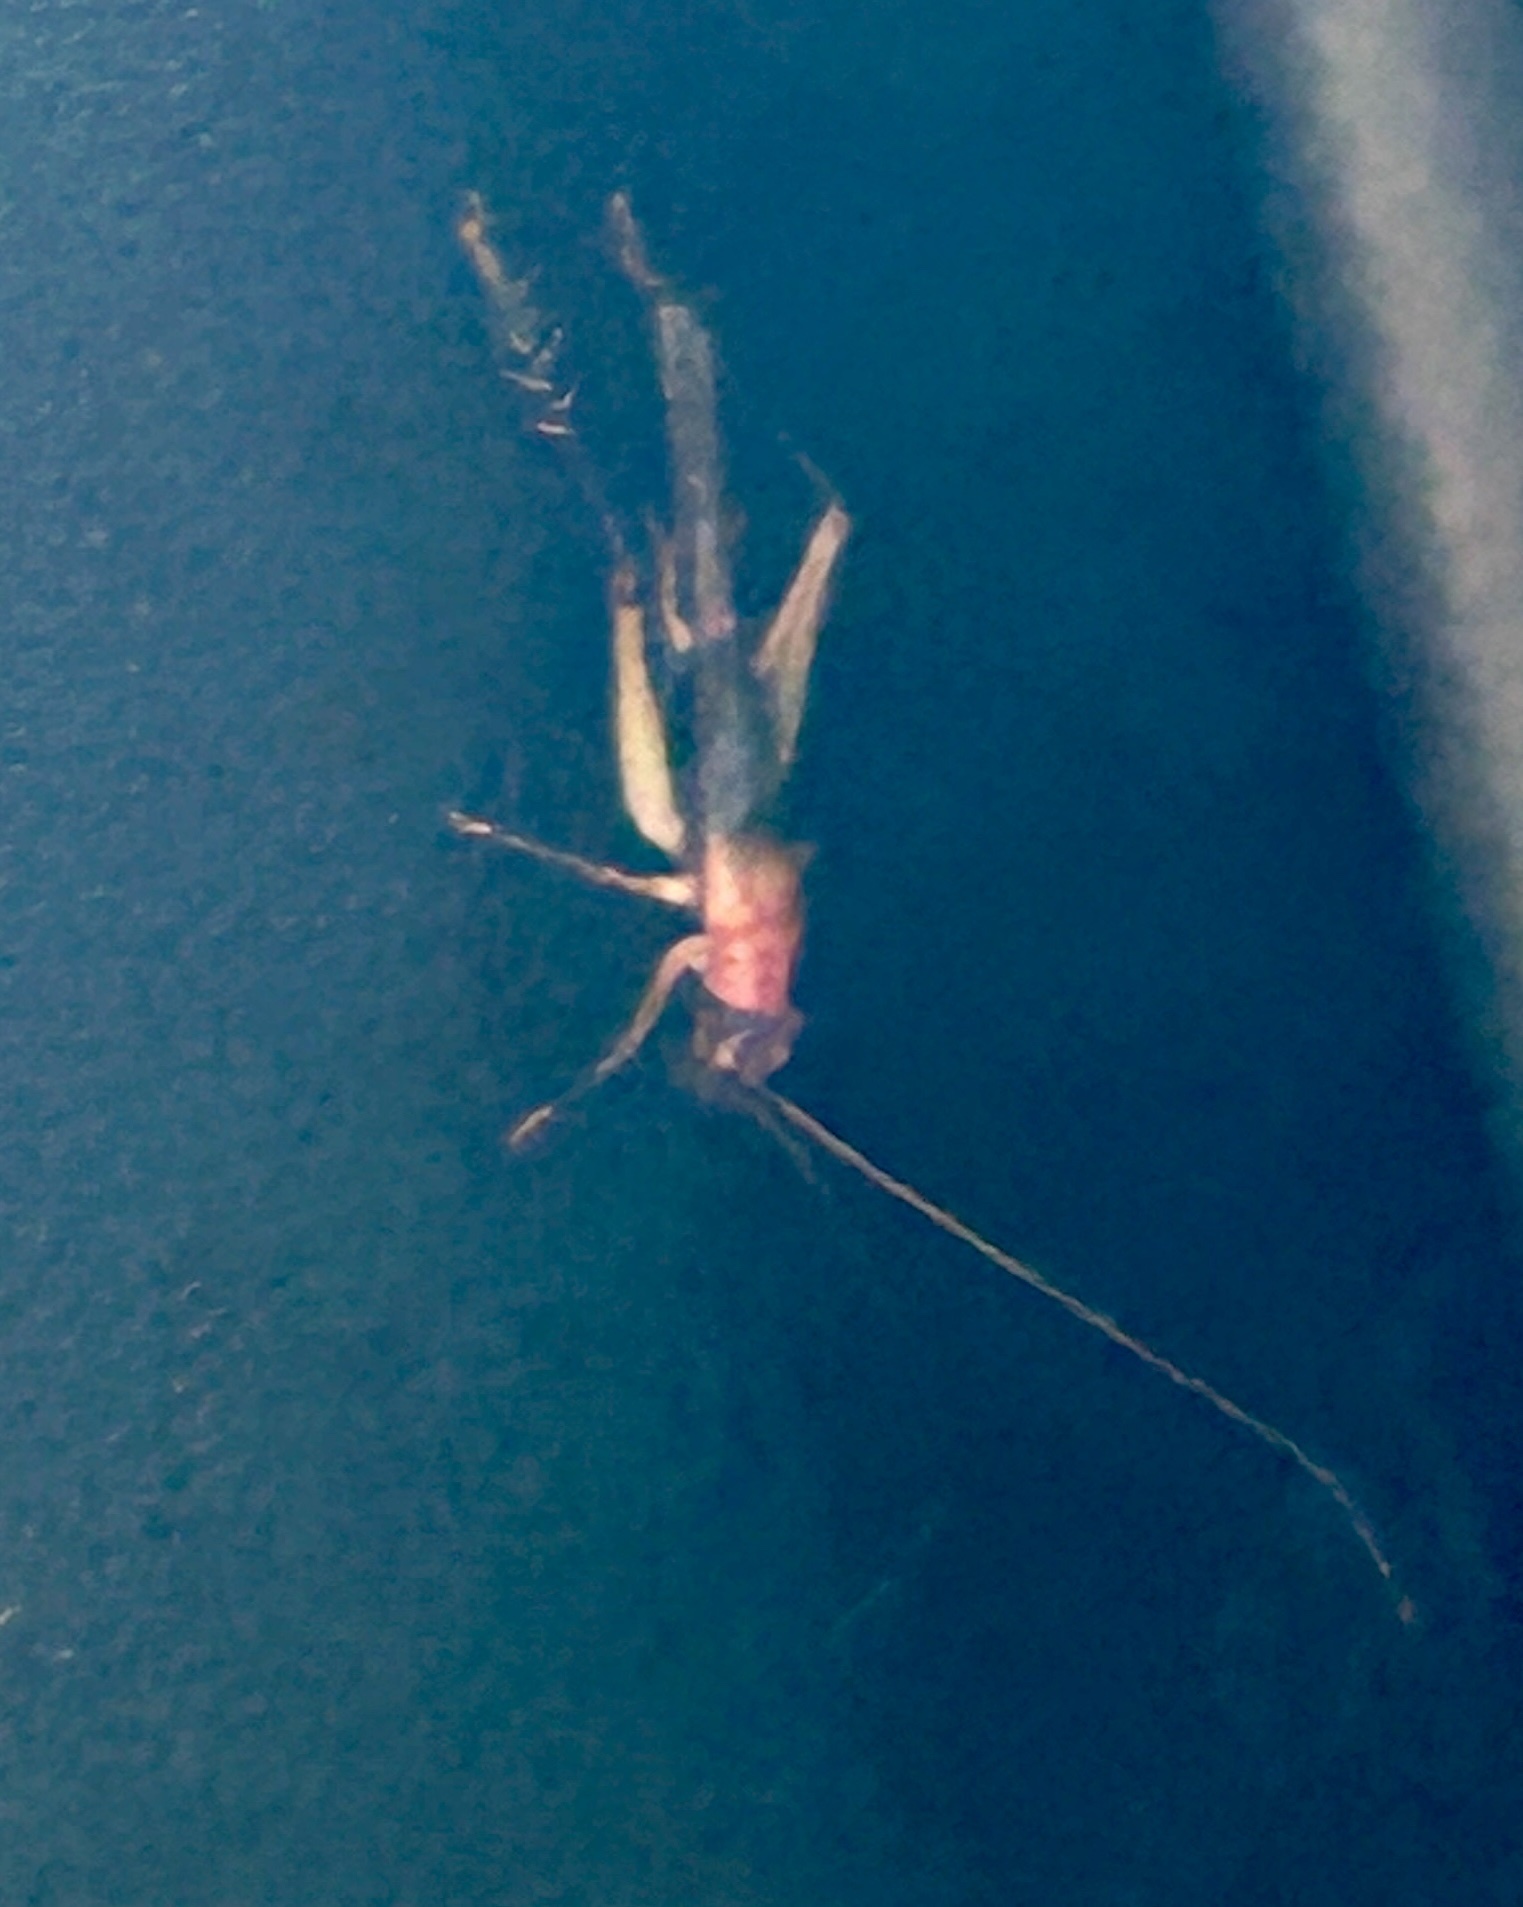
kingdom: Animalia
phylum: Arthropoda
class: Insecta
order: Orthoptera
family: Trigonidiidae
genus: Homoeoxipha
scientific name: Homoeoxipha lycoides
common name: Tinkling leaf-runner
